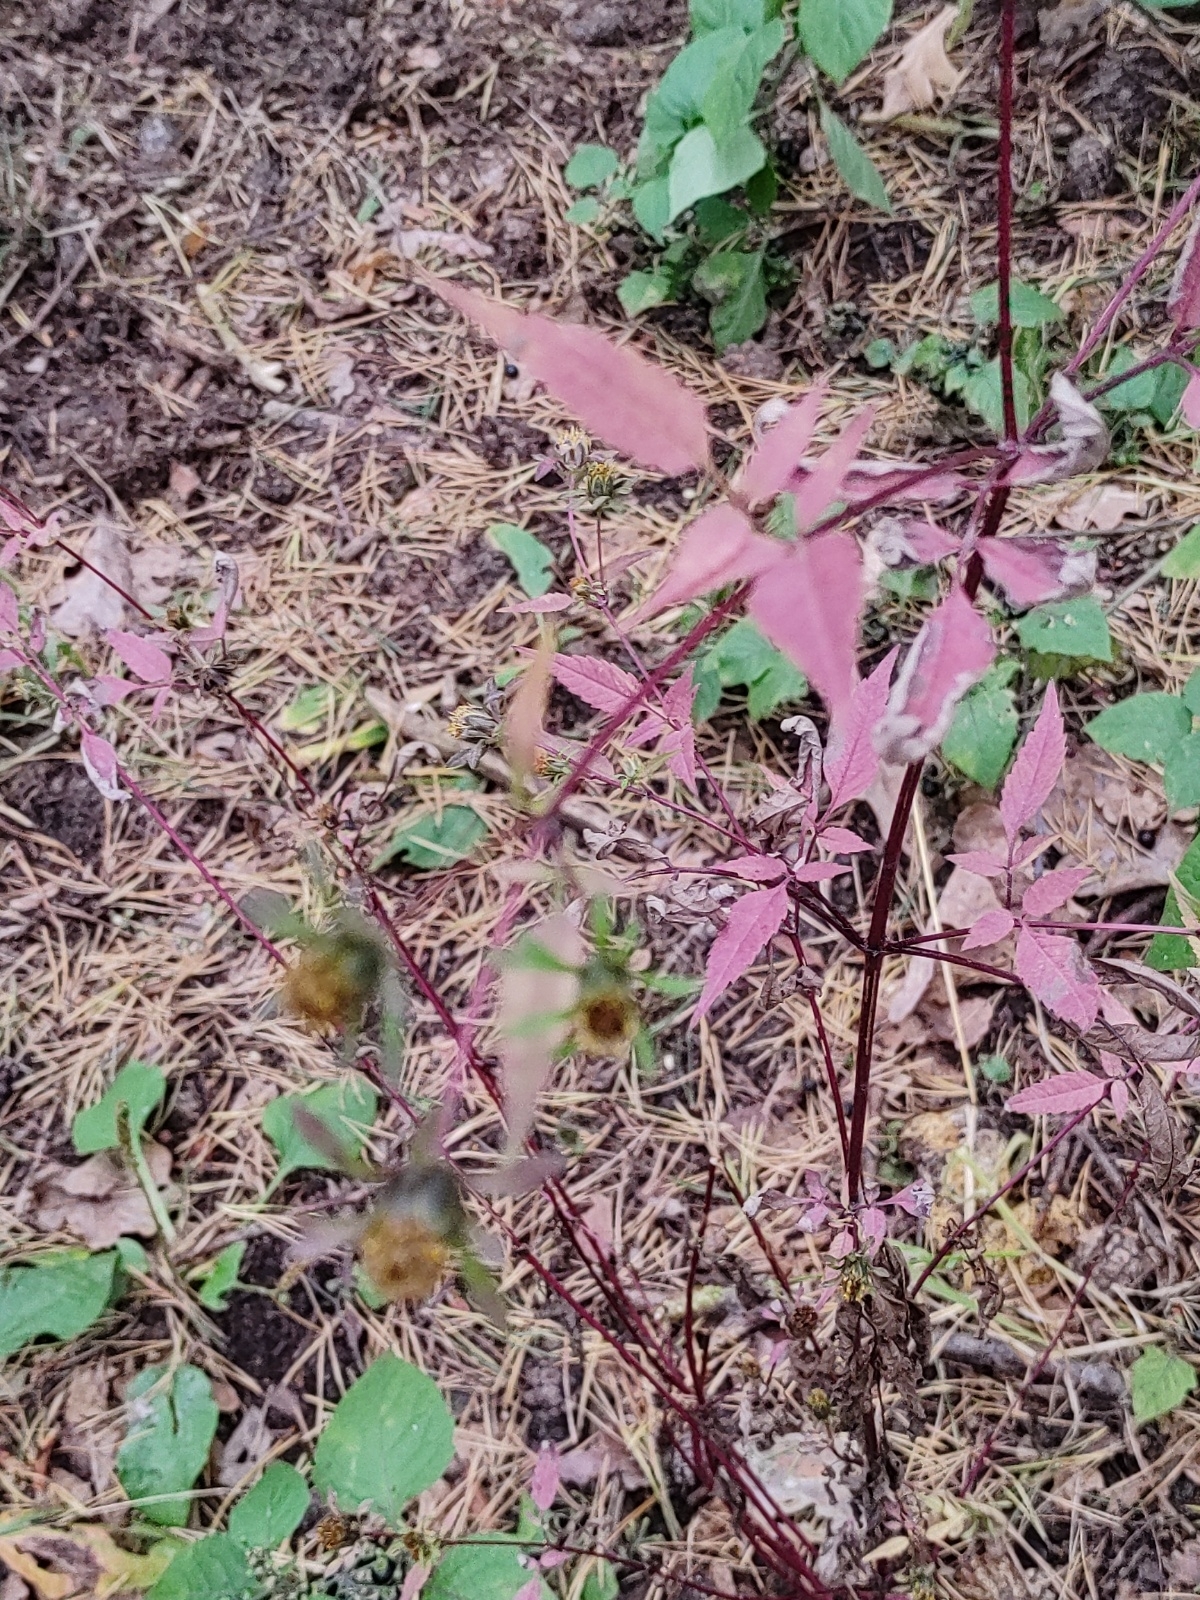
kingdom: Plantae
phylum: Tracheophyta
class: Magnoliopsida
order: Asterales
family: Asteraceae
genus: Bidens
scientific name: Bidens frondosa
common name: Beggarticks
